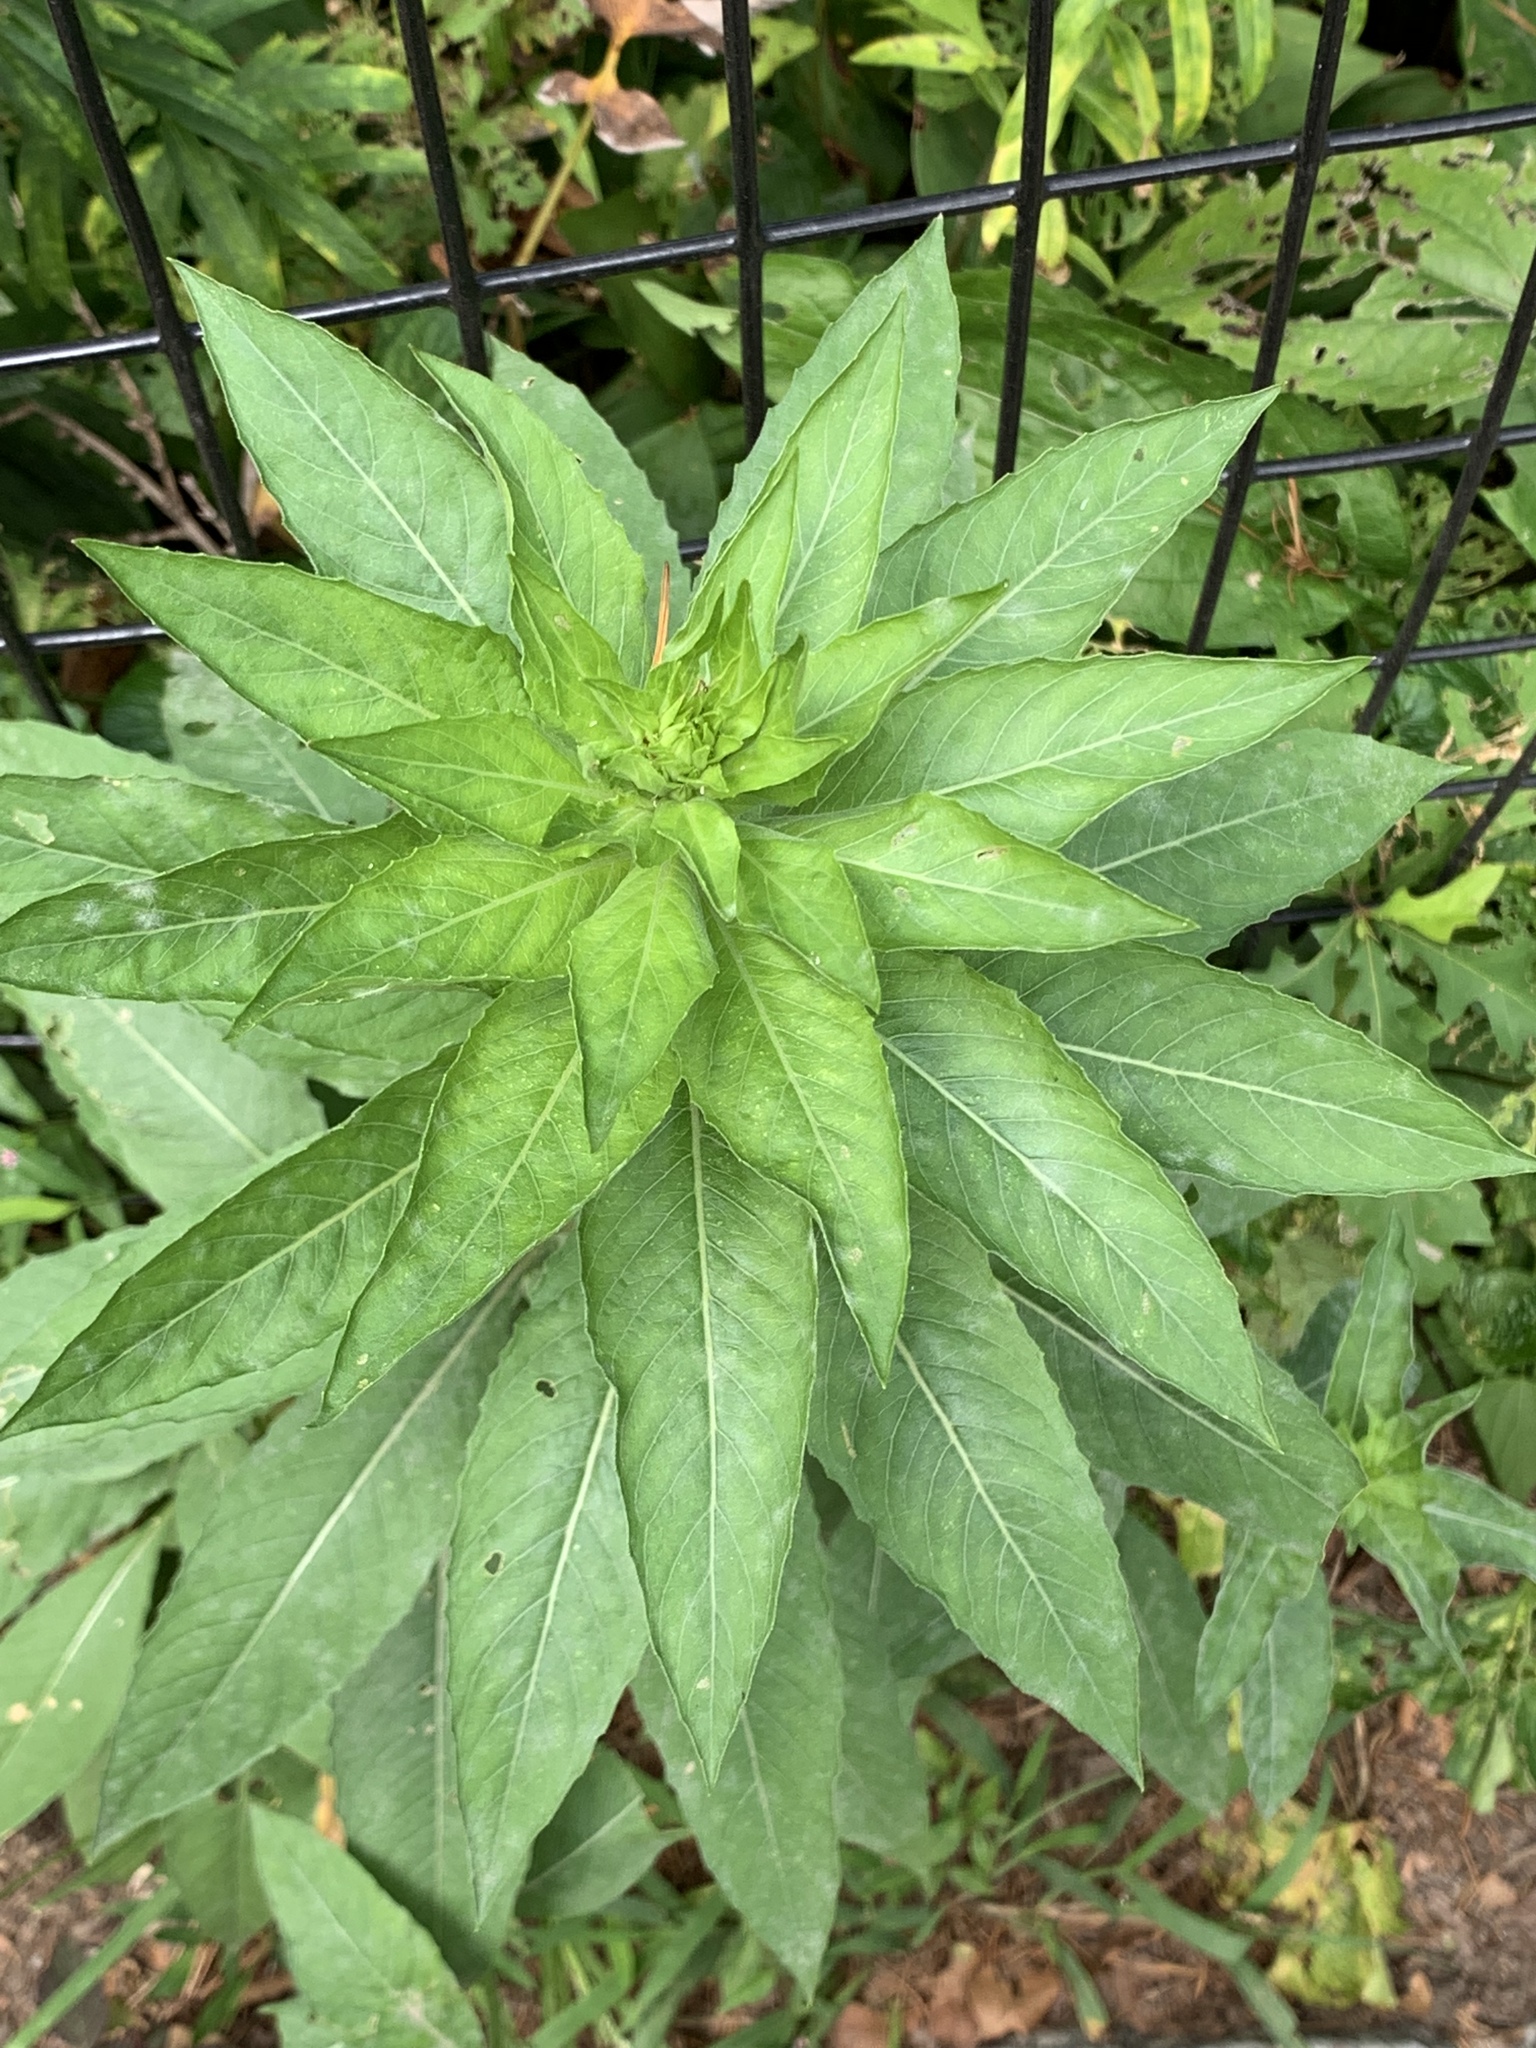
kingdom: Plantae
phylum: Tracheophyta
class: Magnoliopsida
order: Myrtales
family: Onagraceae
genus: Oenothera
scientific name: Oenothera biennis
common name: Common evening-primrose
